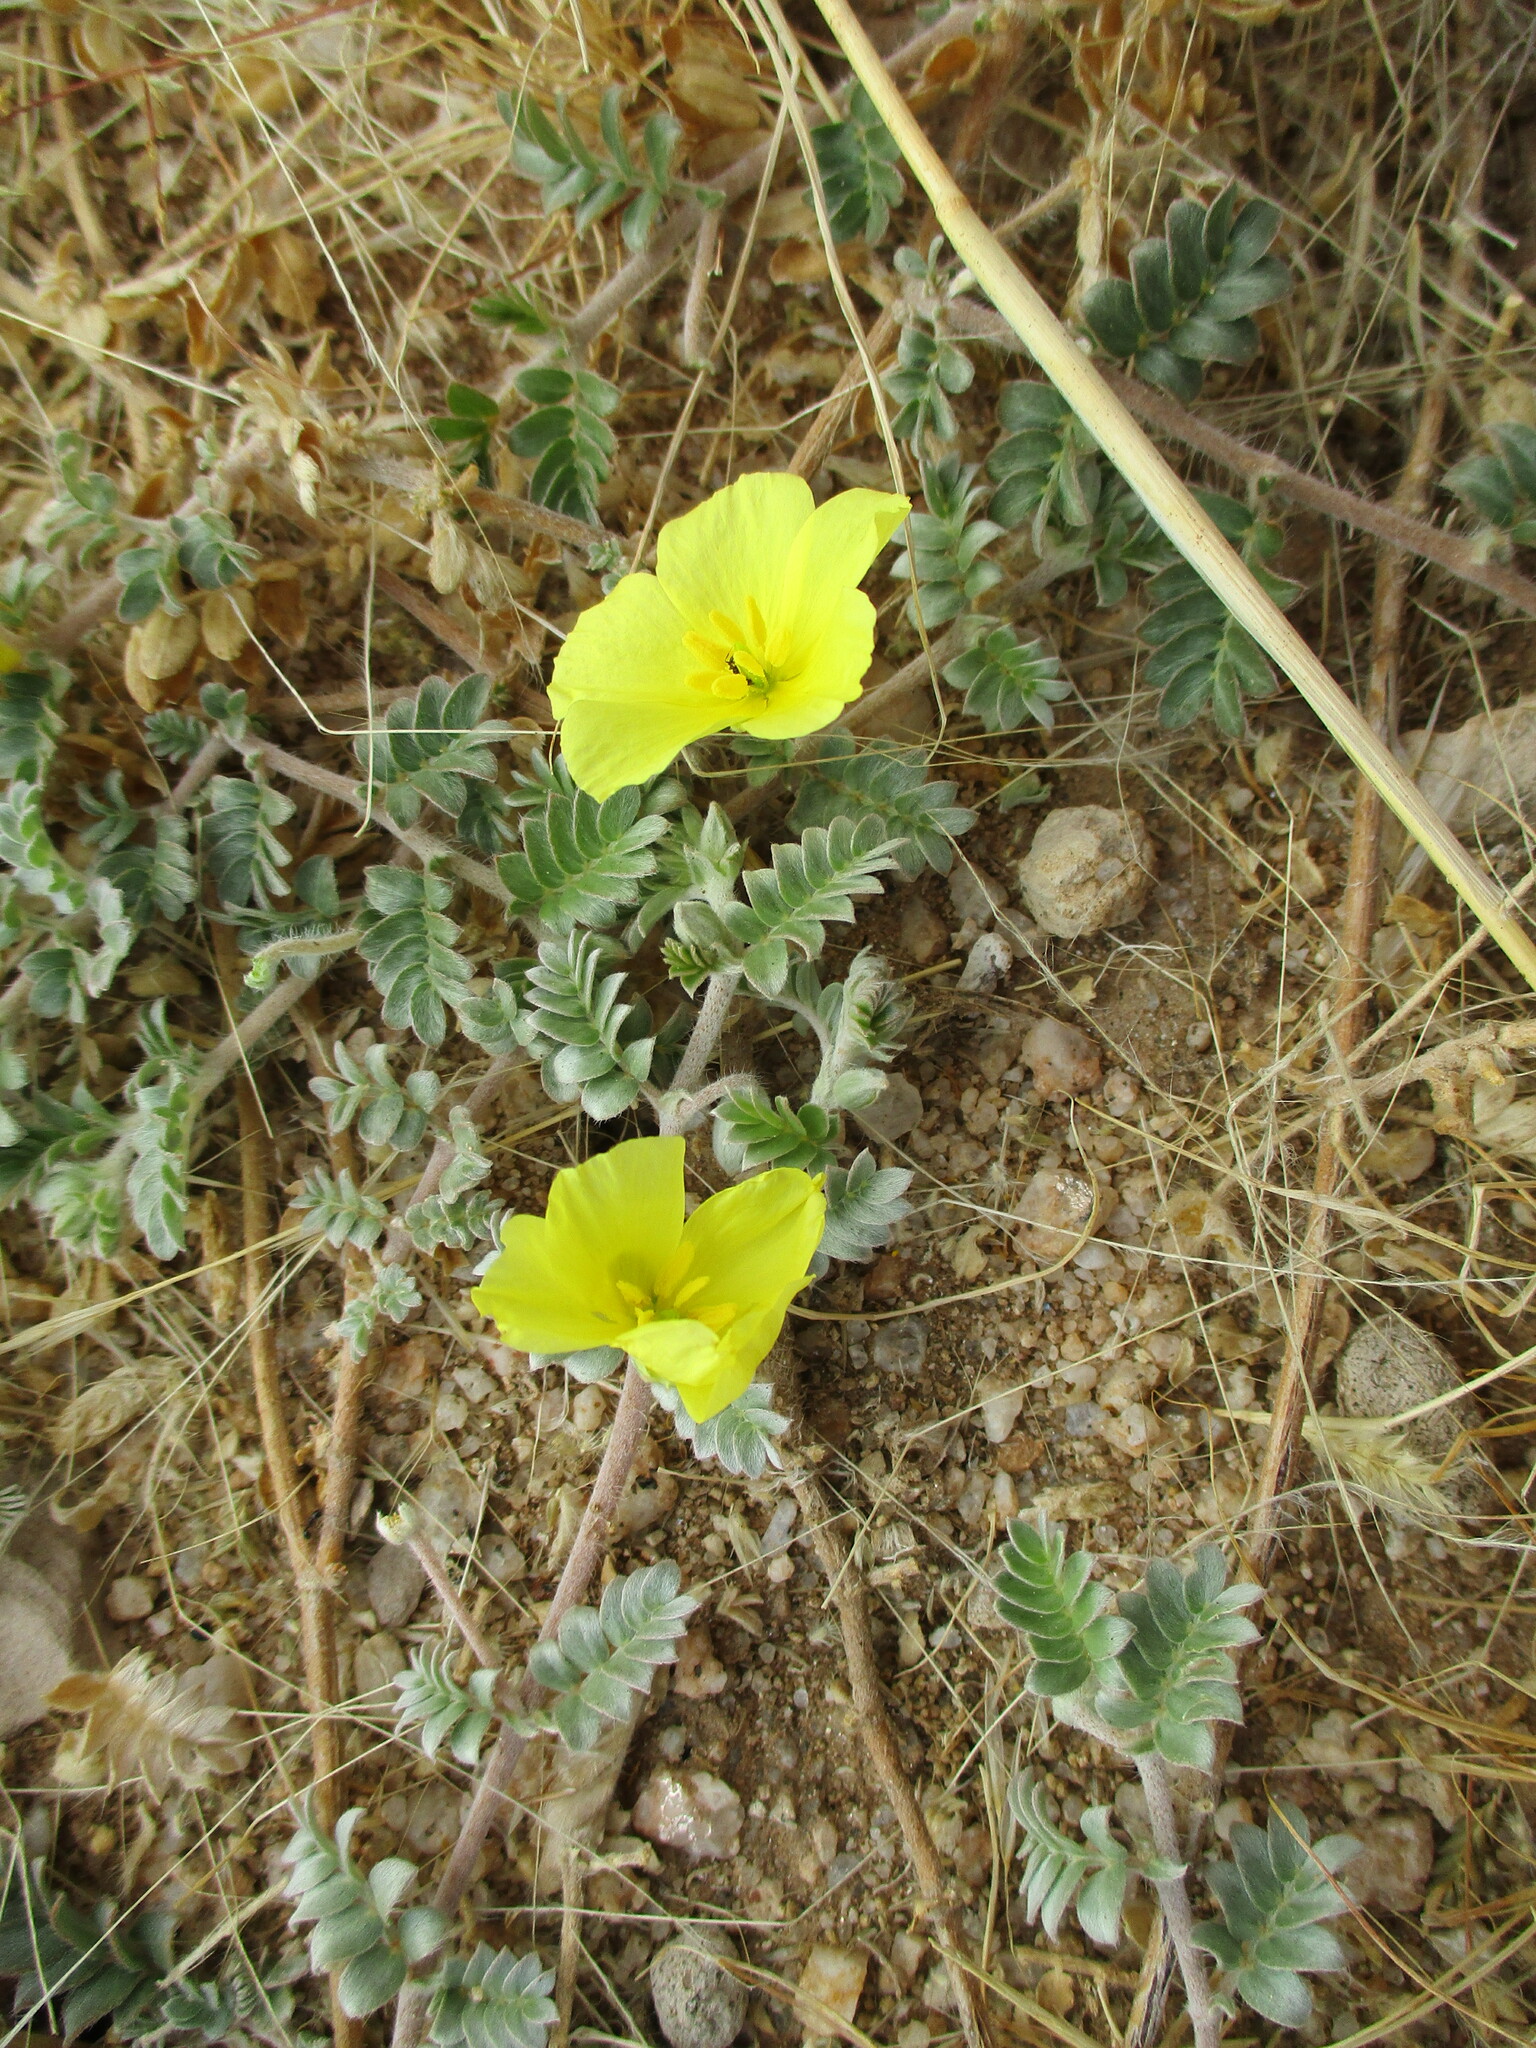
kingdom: Plantae
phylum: Tracheophyta
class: Magnoliopsida
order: Zygophyllales
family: Zygophyllaceae
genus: Tribulus
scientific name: Tribulus cristatus
